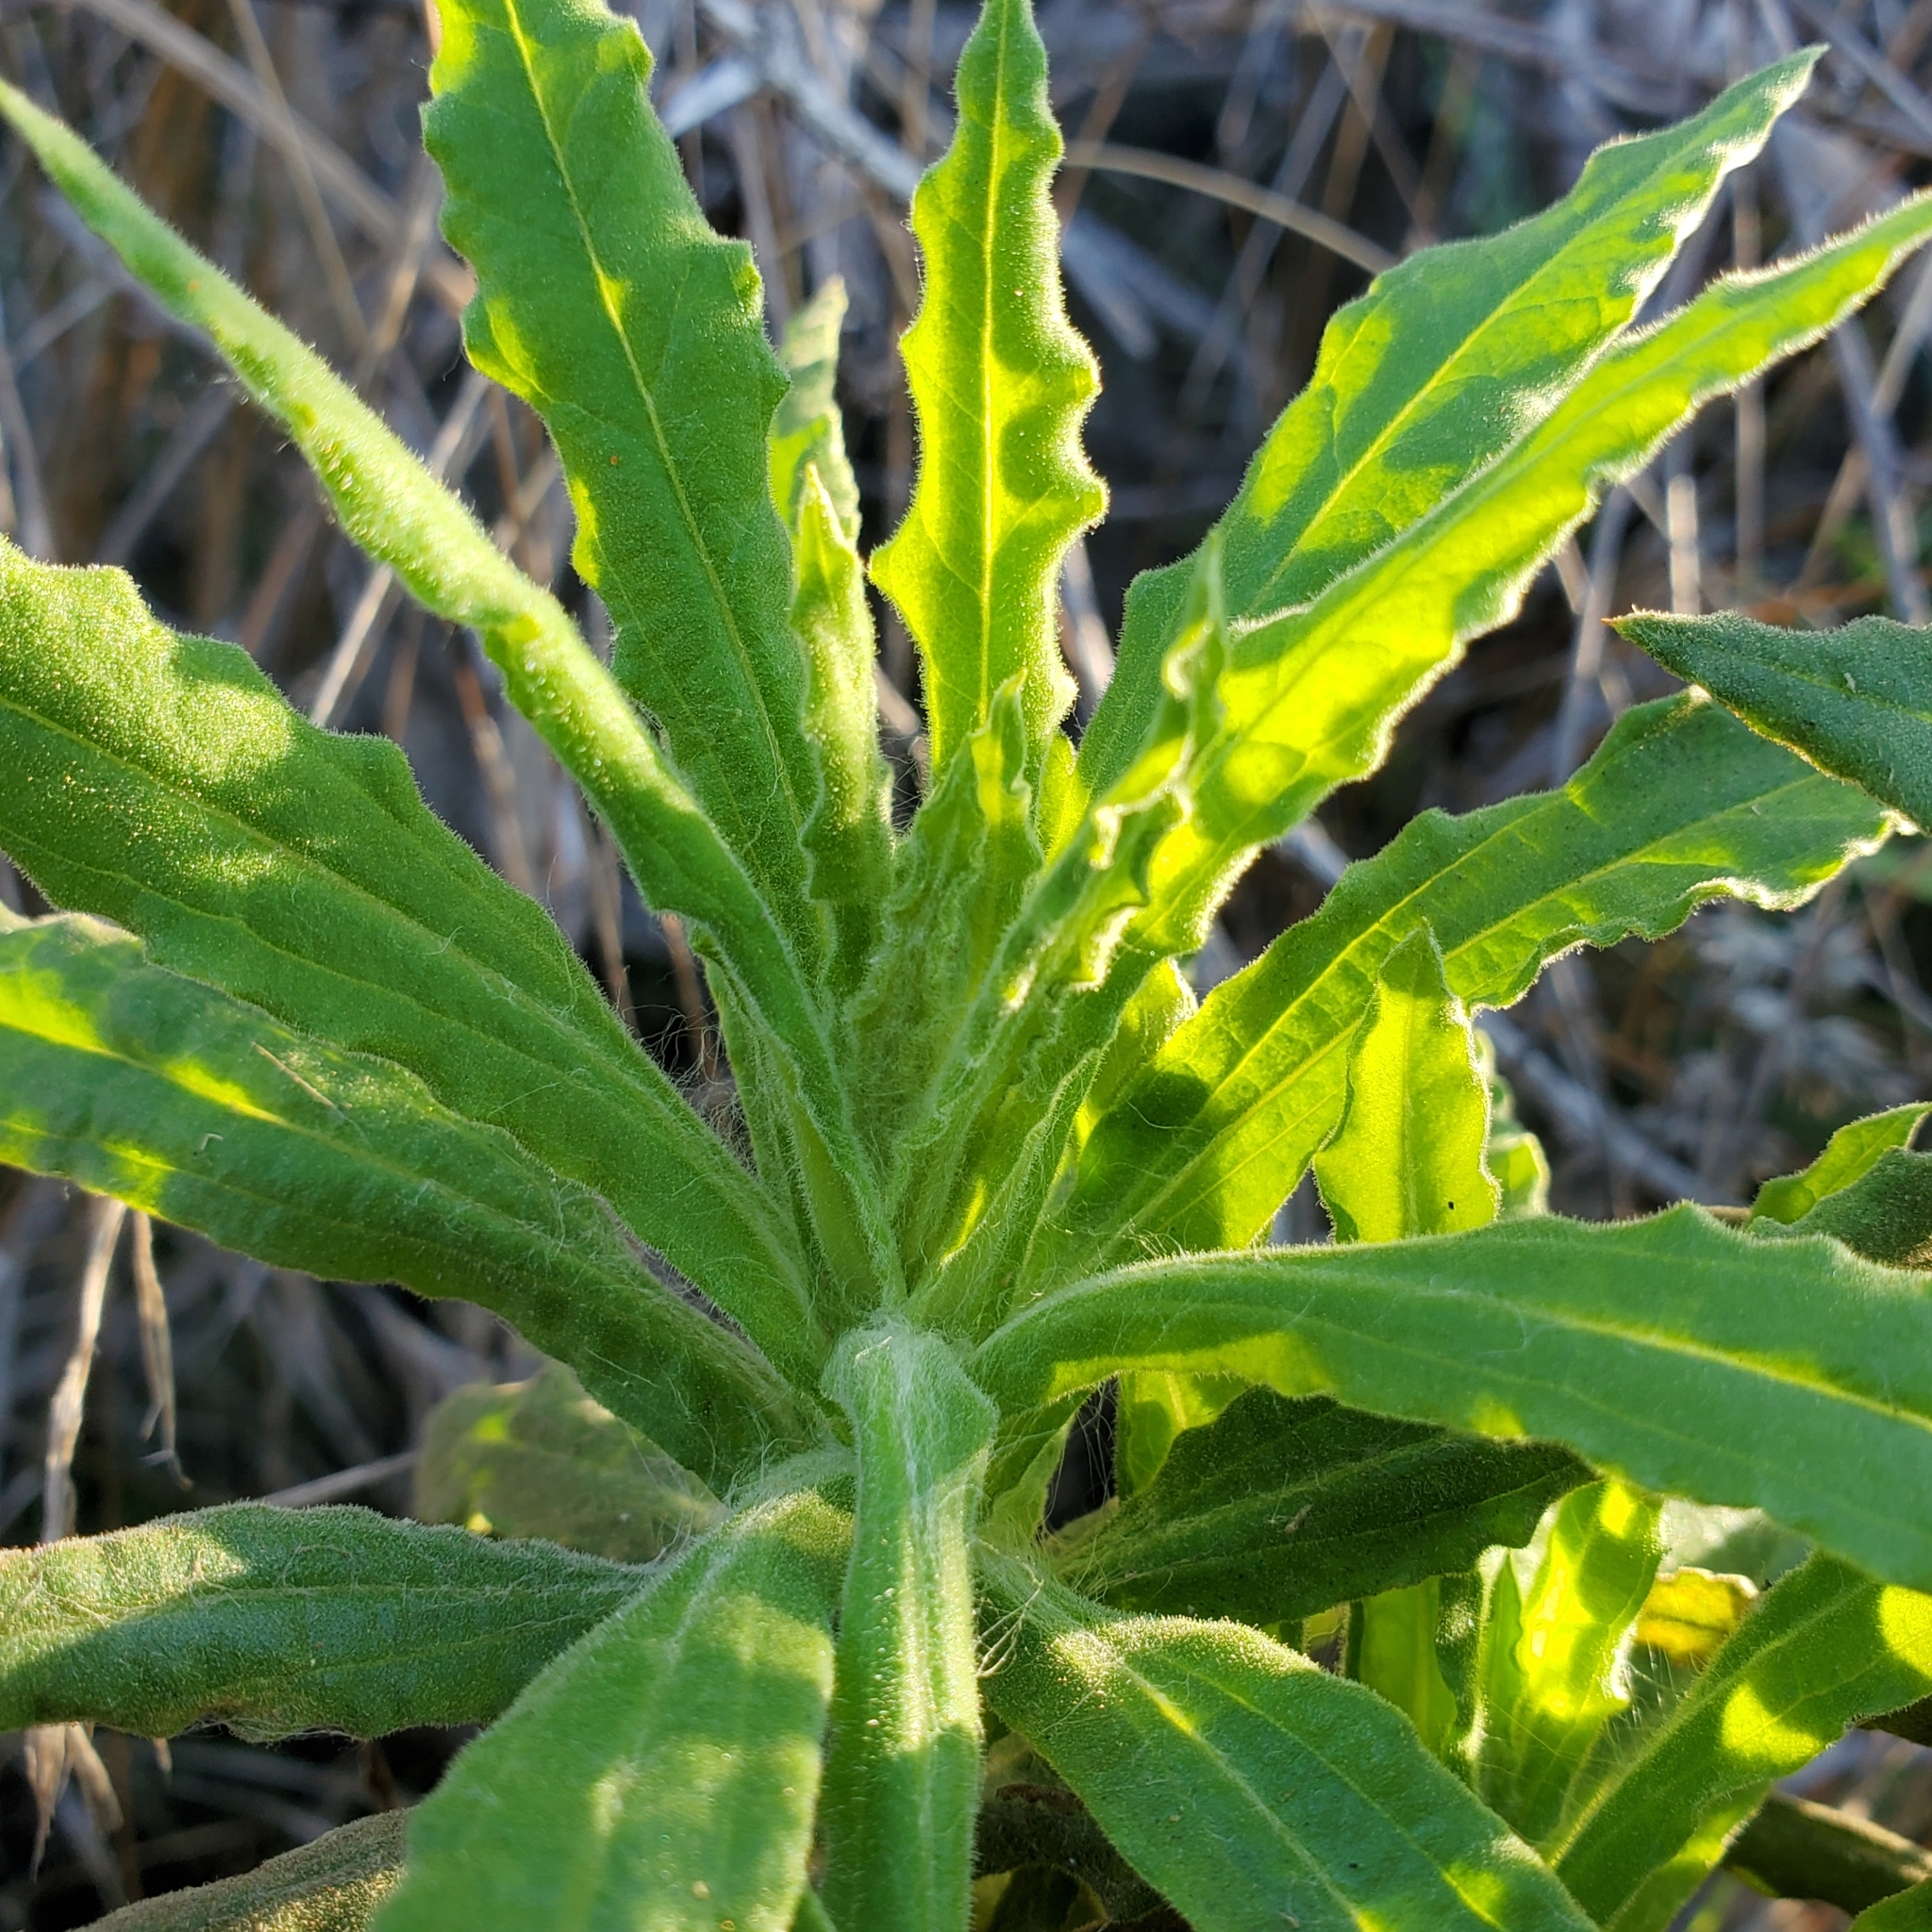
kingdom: Plantae
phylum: Tracheophyta
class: Magnoliopsida
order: Asterales
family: Asteraceae
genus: Pseudognaphalium
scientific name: Pseudognaphalium californicum
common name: California rabbit-tobacco
